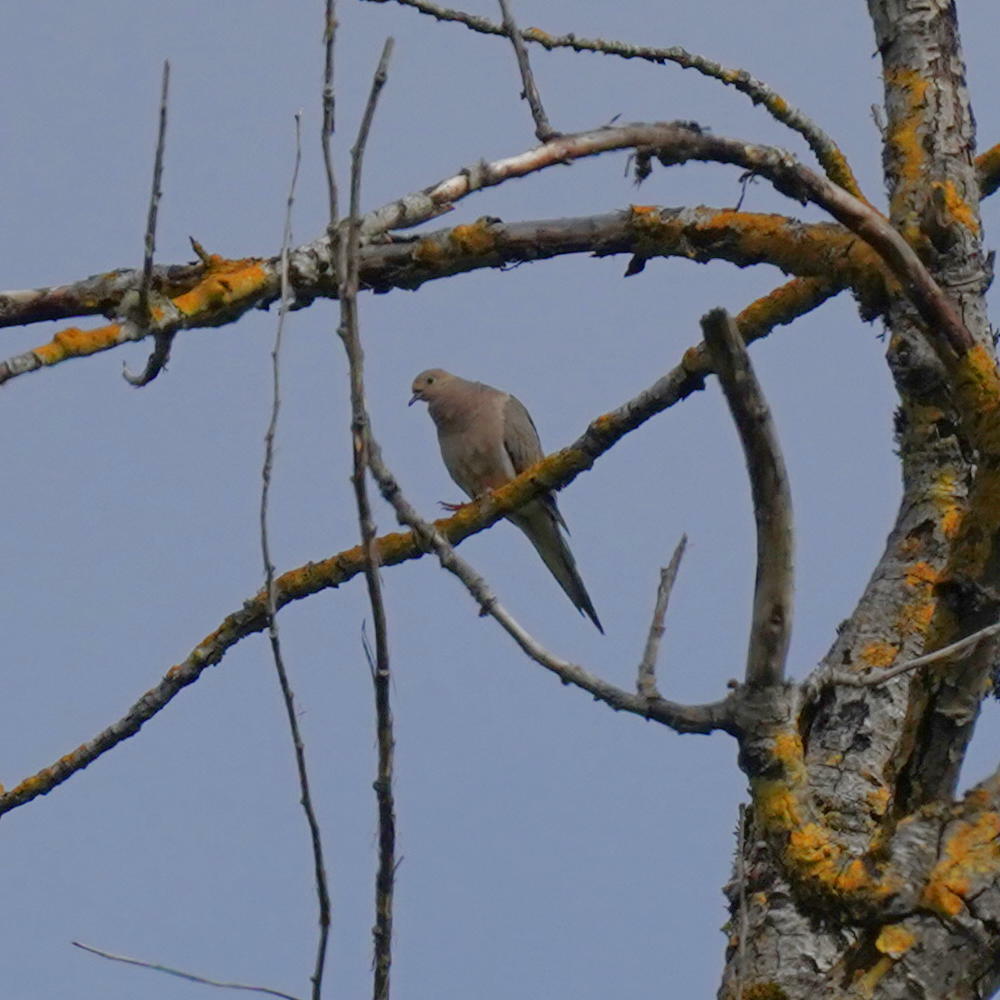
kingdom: Animalia
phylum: Chordata
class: Aves
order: Columbiformes
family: Columbidae
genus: Zenaida
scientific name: Zenaida macroura
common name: Mourning dove
